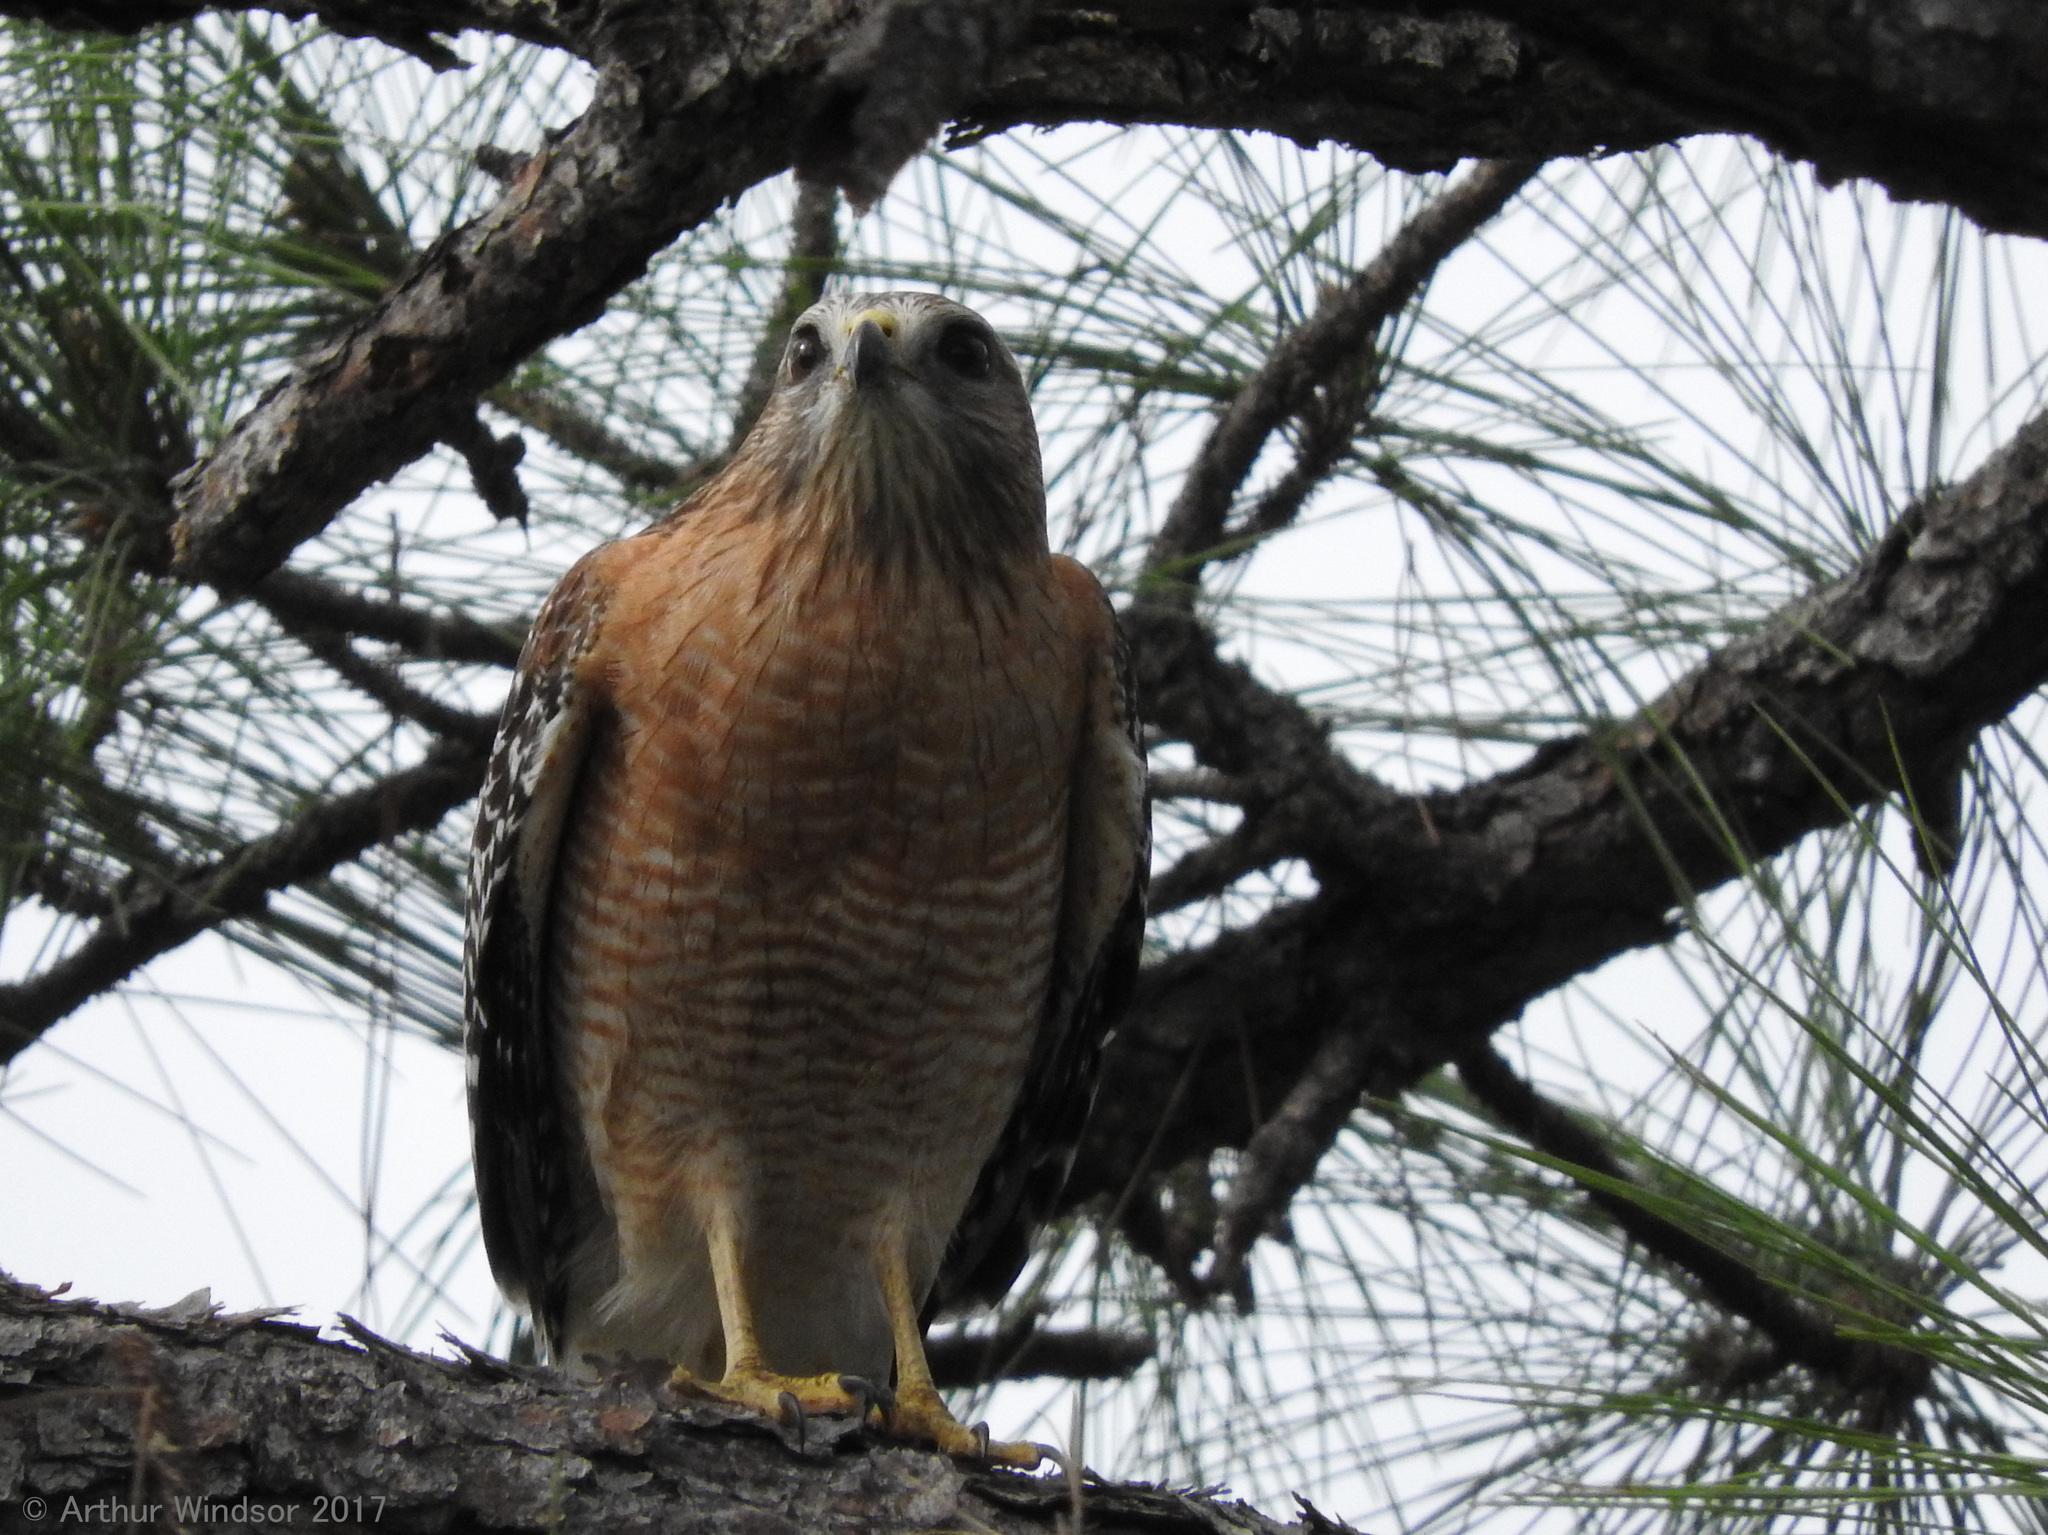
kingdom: Animalia
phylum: Chordata
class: Aves
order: Accipitriformes
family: Accipitridae
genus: Buteo
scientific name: Buteo lineatus
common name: Red-shouldered hawk
